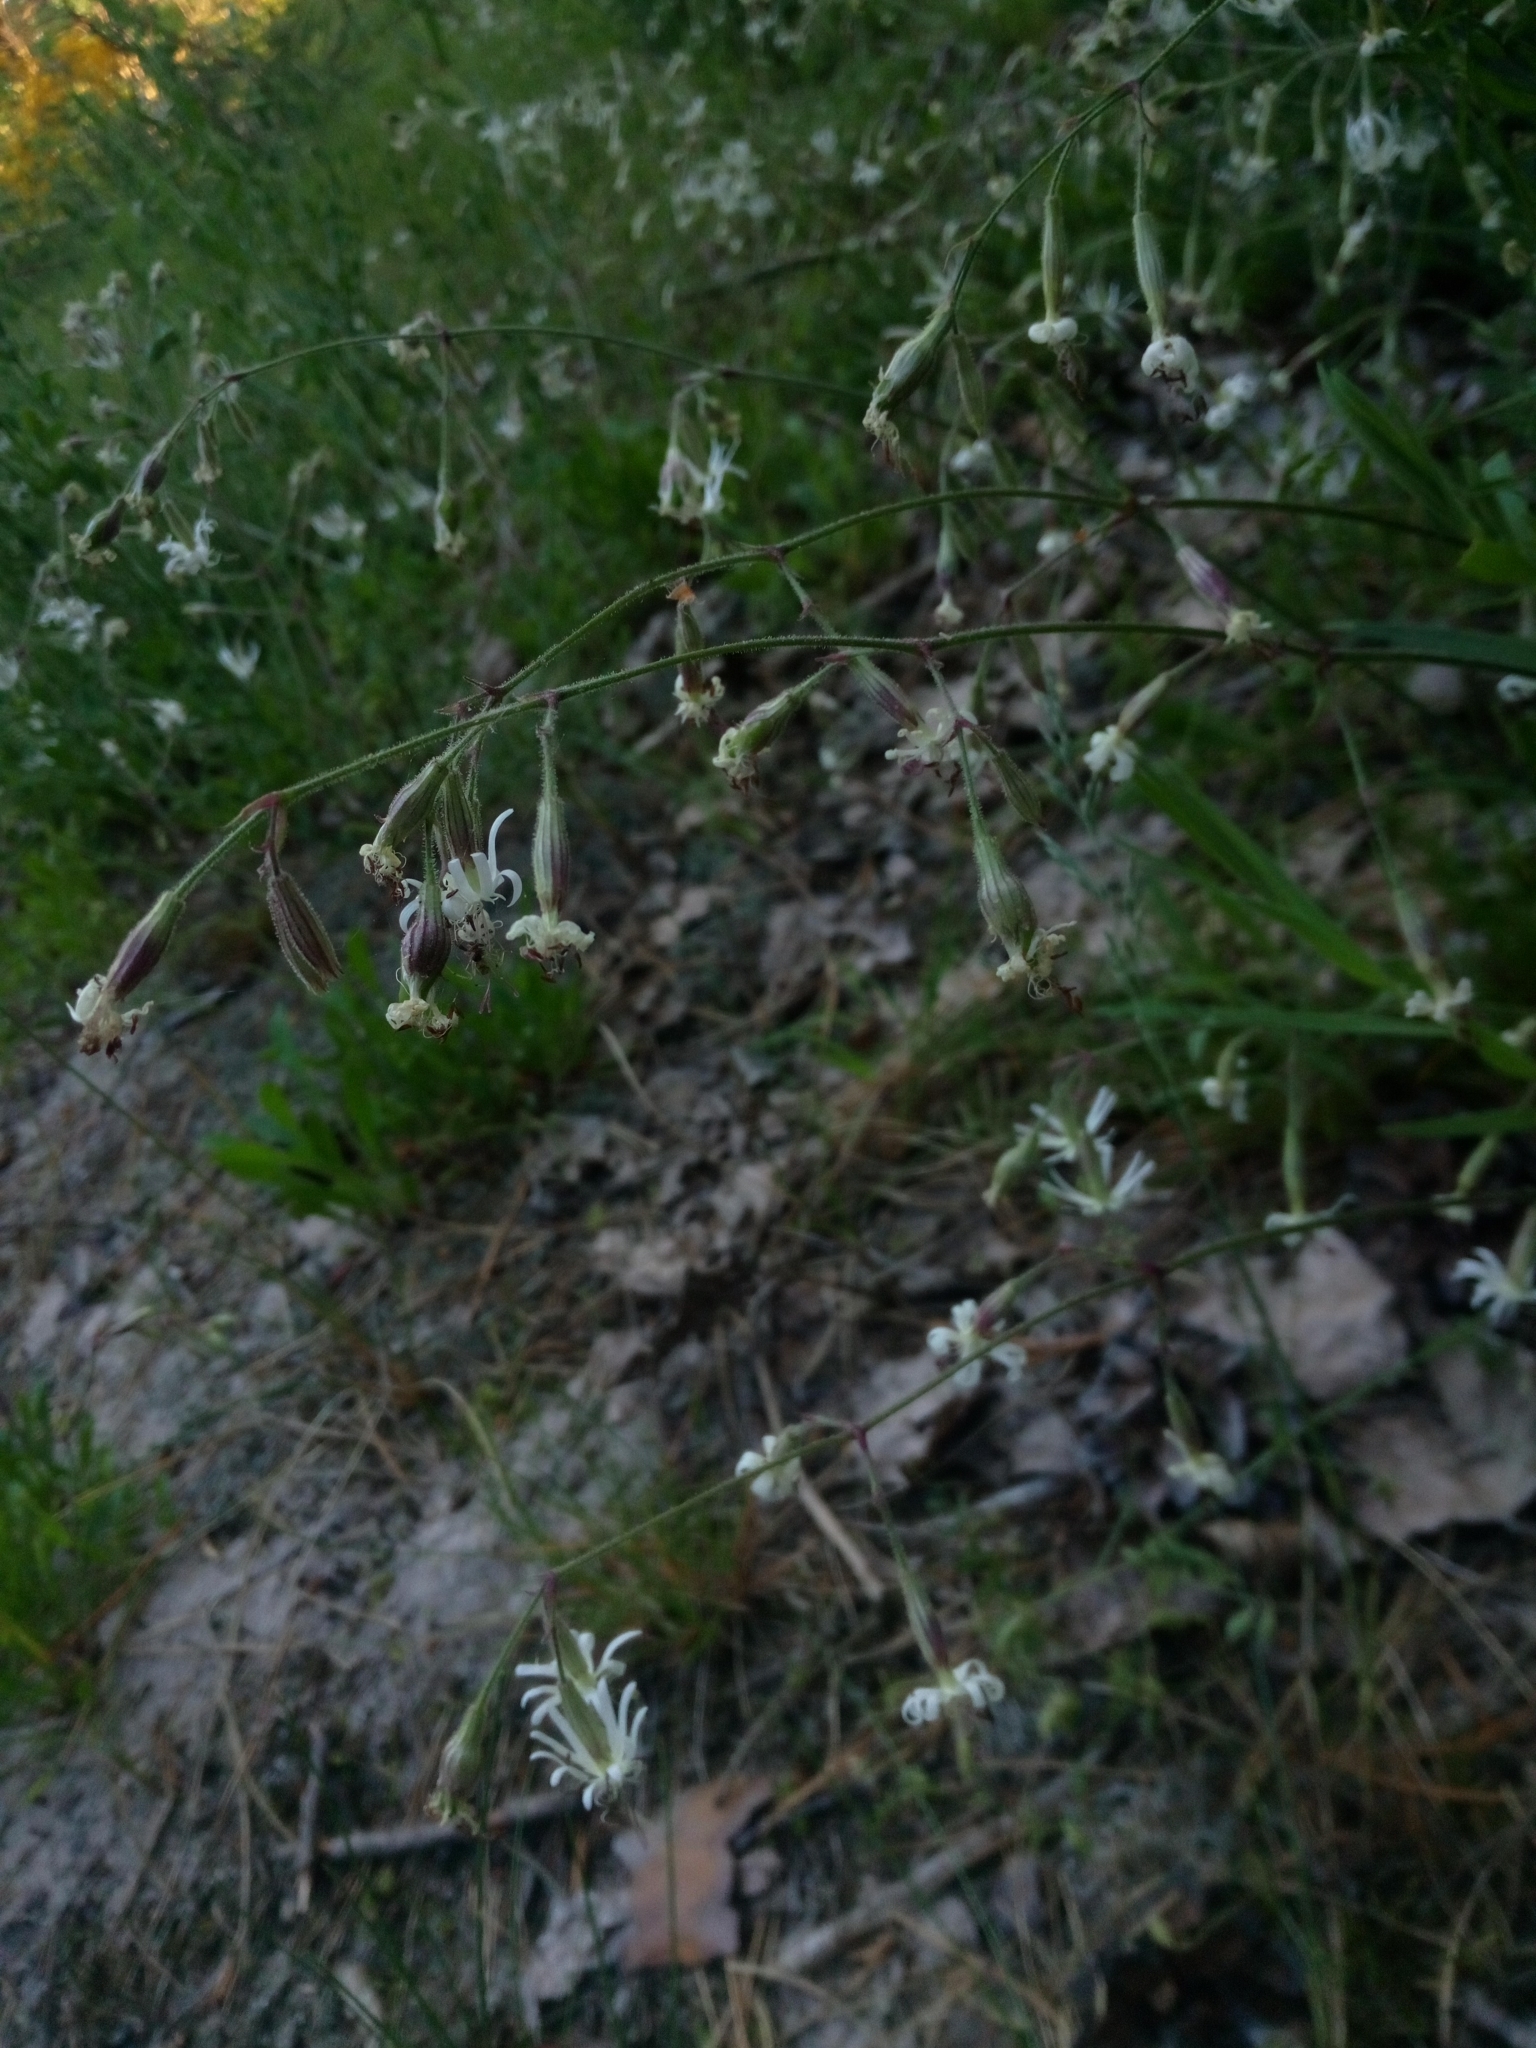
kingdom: Plantae
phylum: Tracheophyta
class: Magnoliopsida
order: Caryophyllales
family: Caryophyllaceae
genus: Silene
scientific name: Silene nutans
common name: Nottingham catchfly
